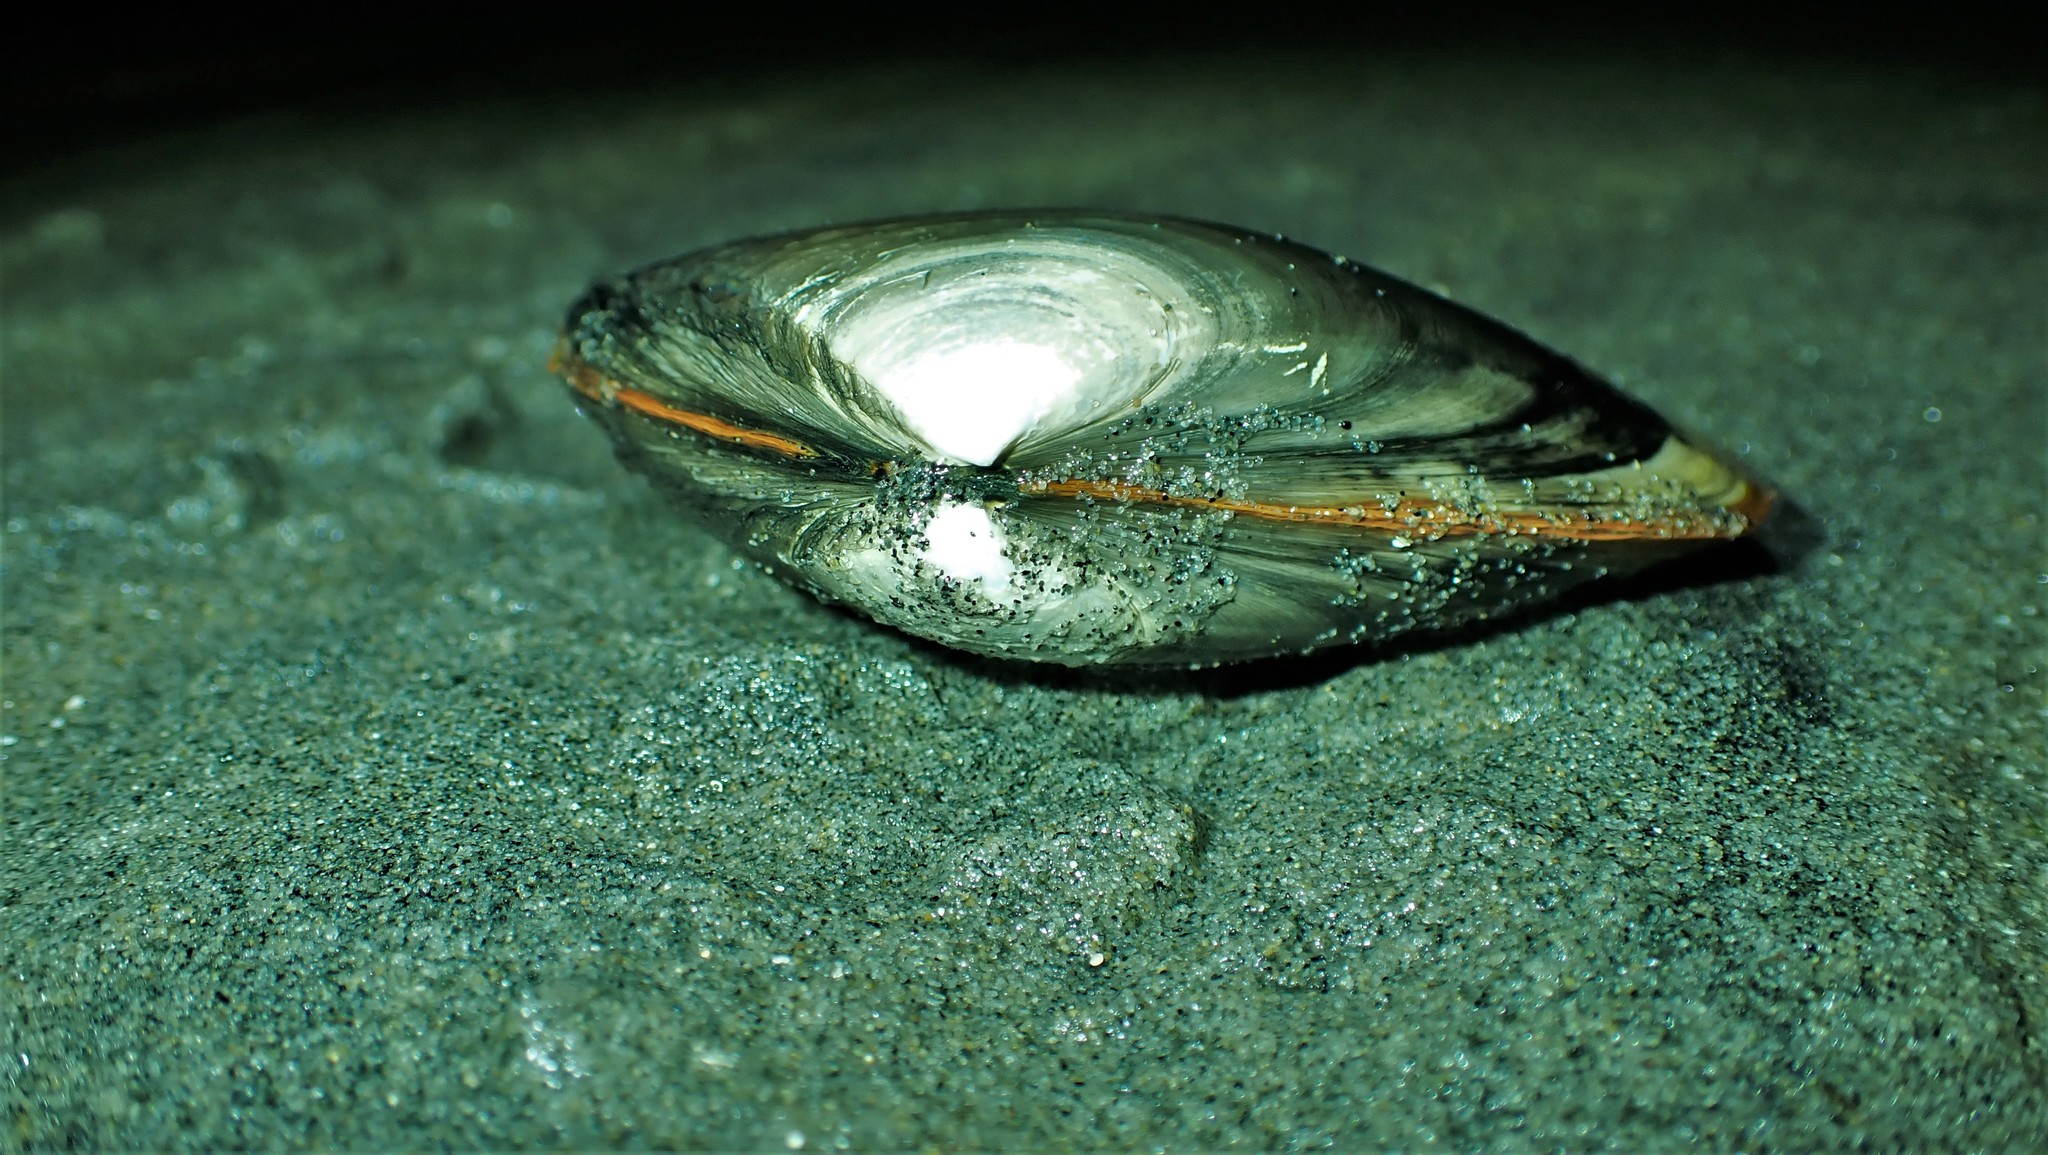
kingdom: Animalia
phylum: Mollusca
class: Bivalvia
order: Venerida
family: Mactridae
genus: Simomactra
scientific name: Simomactra falcata
